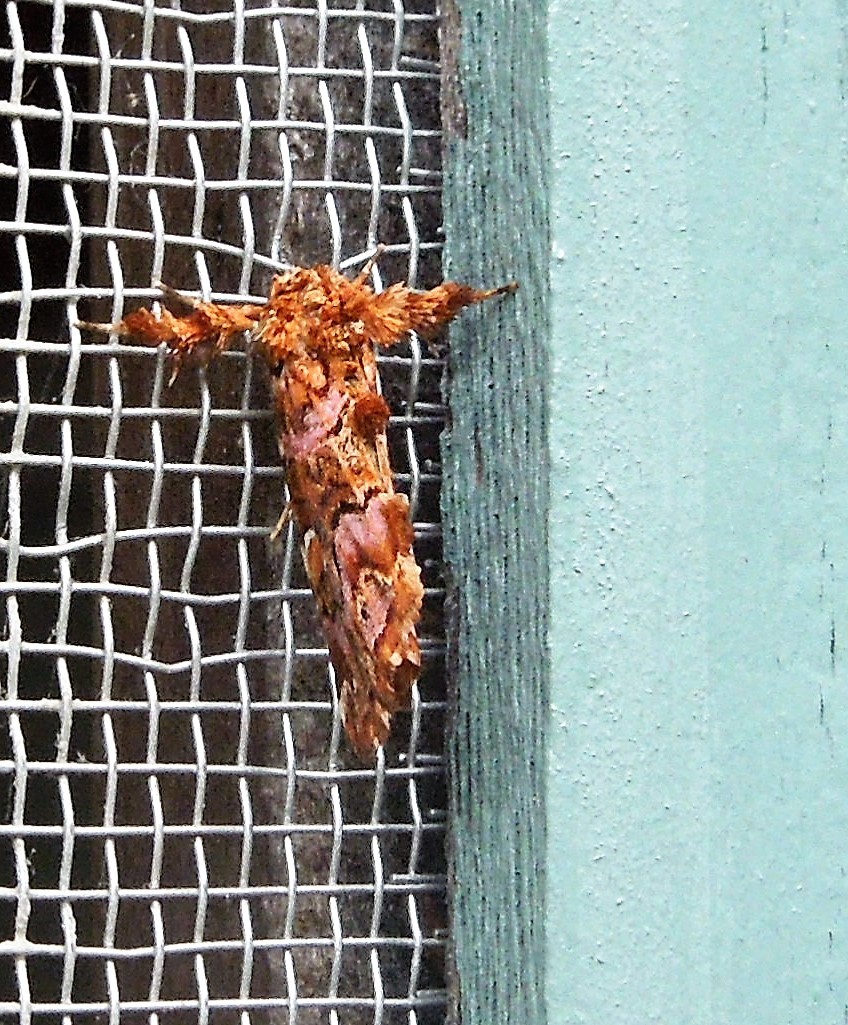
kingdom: Animalia
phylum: Arthropoda
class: Insecta
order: Lepidoptera
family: Noctuidae
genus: Callopistria
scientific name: Callopistria mollissima
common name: Pink-shaded fern moth
